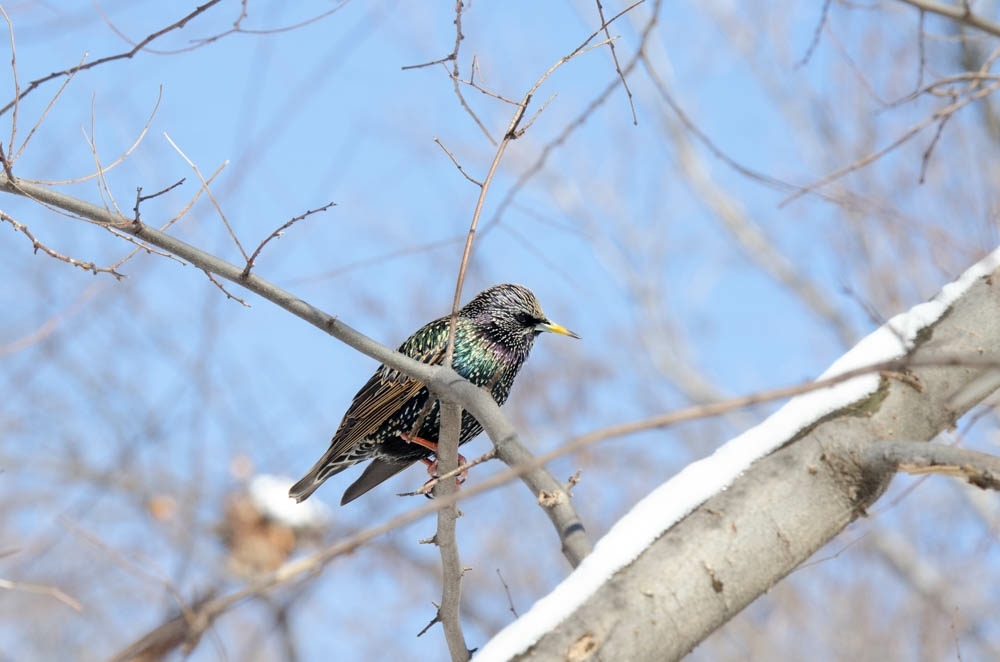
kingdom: Animalia
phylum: Chordata
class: Aves
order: Passeriformes
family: Sturnidae
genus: Sturnus
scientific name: Sturnus vulgaris
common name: Common starling
